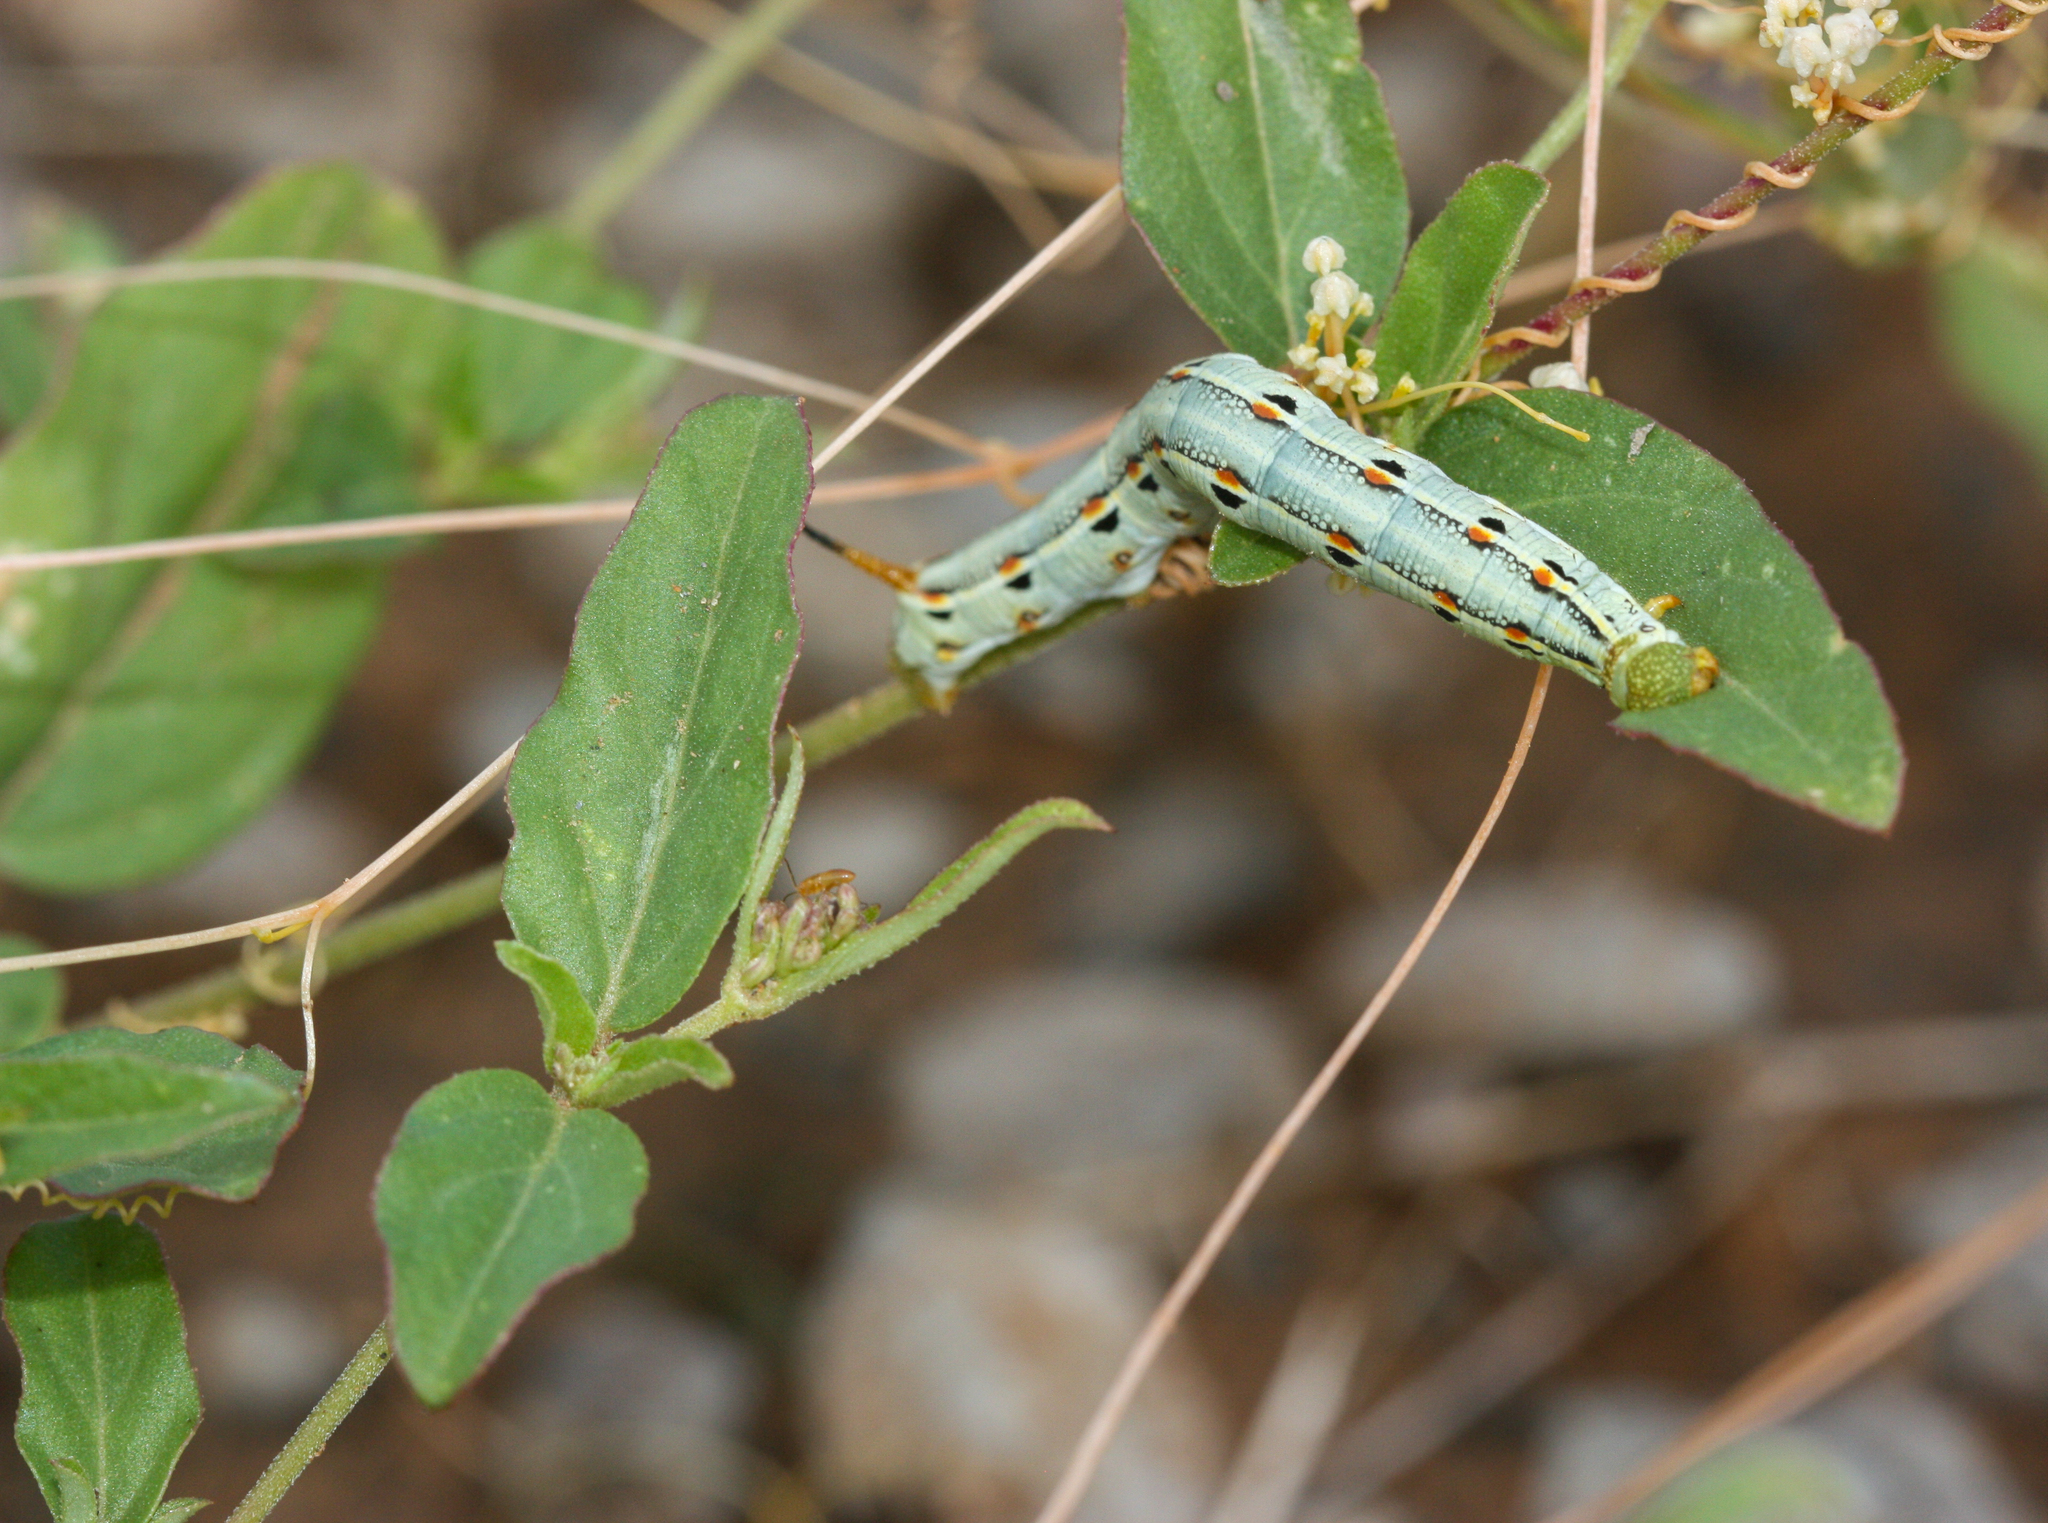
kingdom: Animalia
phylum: Arthropoda
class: Insecta
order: Lepidoptera
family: Sphingidae
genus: Hyles
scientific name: Hyles lineata
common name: White-lined sphinx
